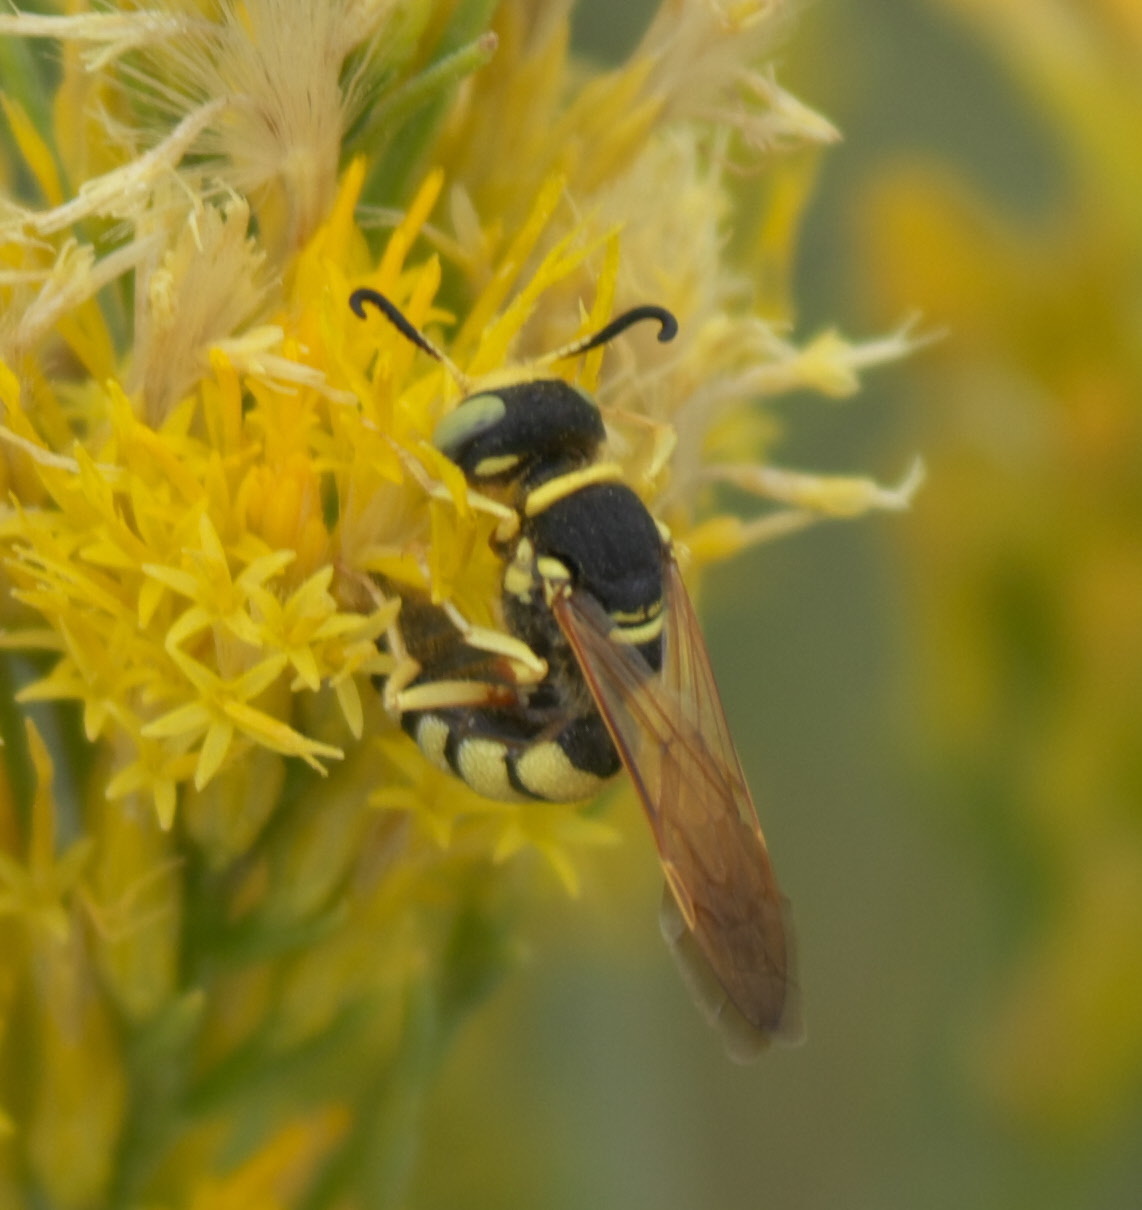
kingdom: Animalia
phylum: Arthropoda
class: Insecta
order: Hymenoptera
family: Crabronidae
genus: Philanthus
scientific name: Philanthus ventilabris
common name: Bee-killer wasp
